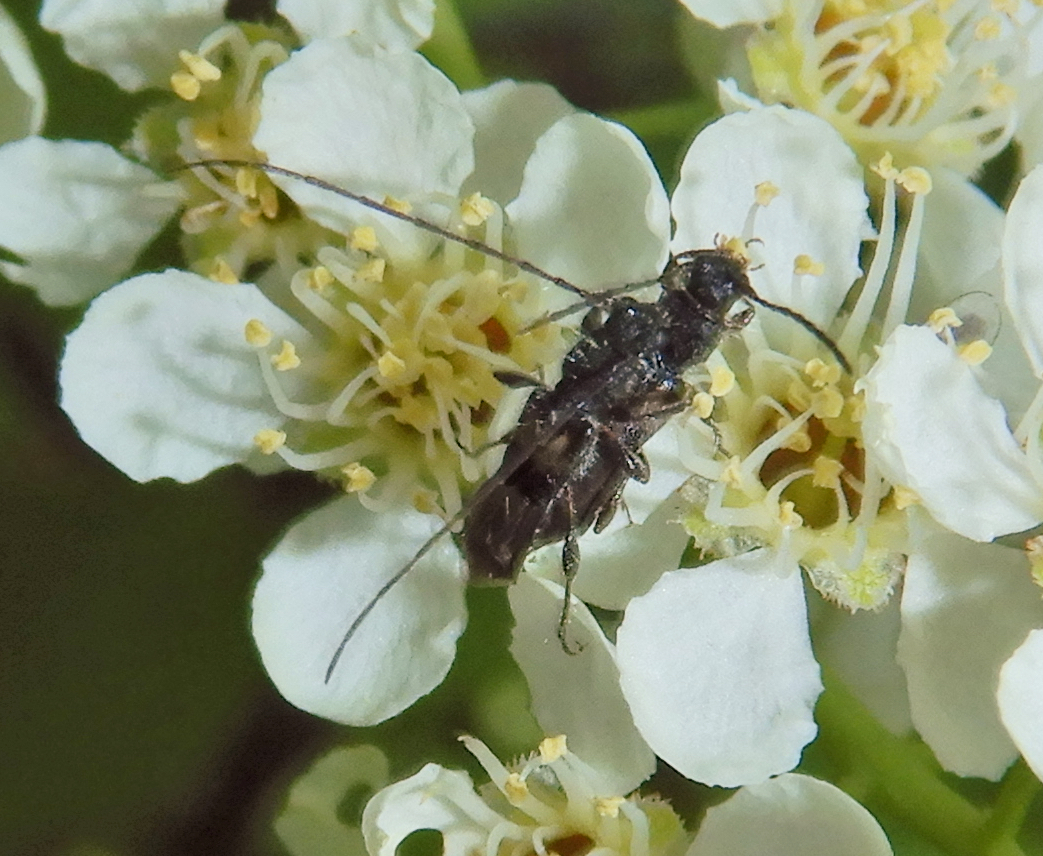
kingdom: Animalia
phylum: Arthropoda
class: Insecta
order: Coleoptera
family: Cerambycidae
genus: Molorchus
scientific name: Molorchus bimaculatus
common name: Bimaculate longhorn beetle
